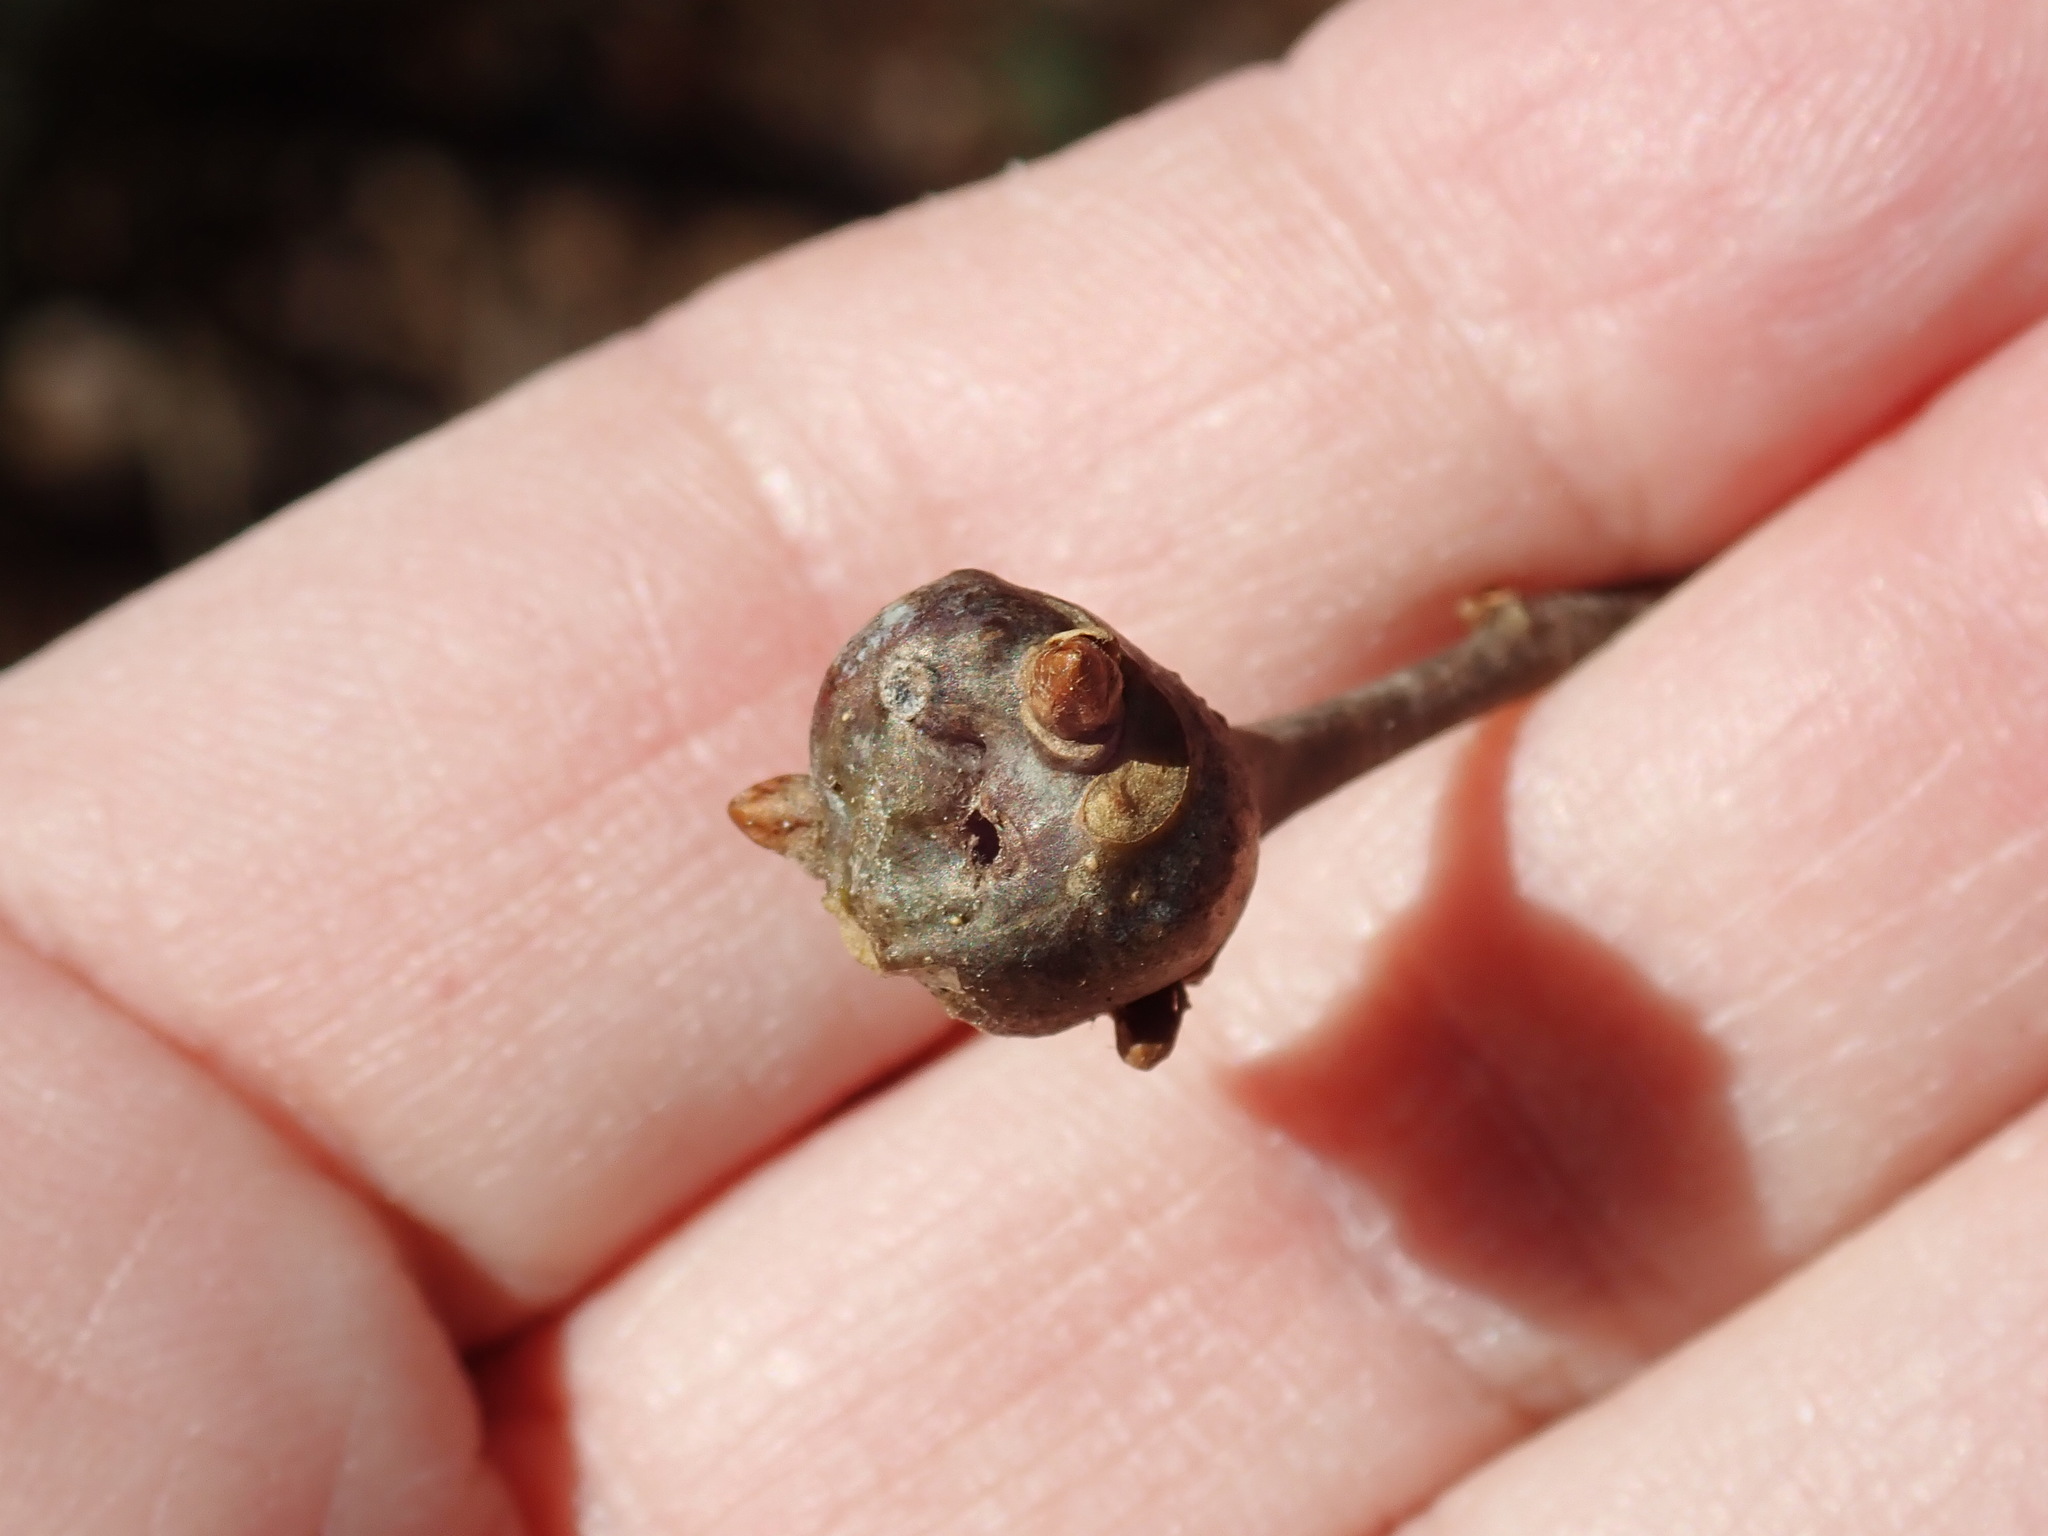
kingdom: Animalia
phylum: Arthropoda
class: Insecta
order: Hymenoptera
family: Cynipidae
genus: Callirhytis
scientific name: Callirhytis clavula
